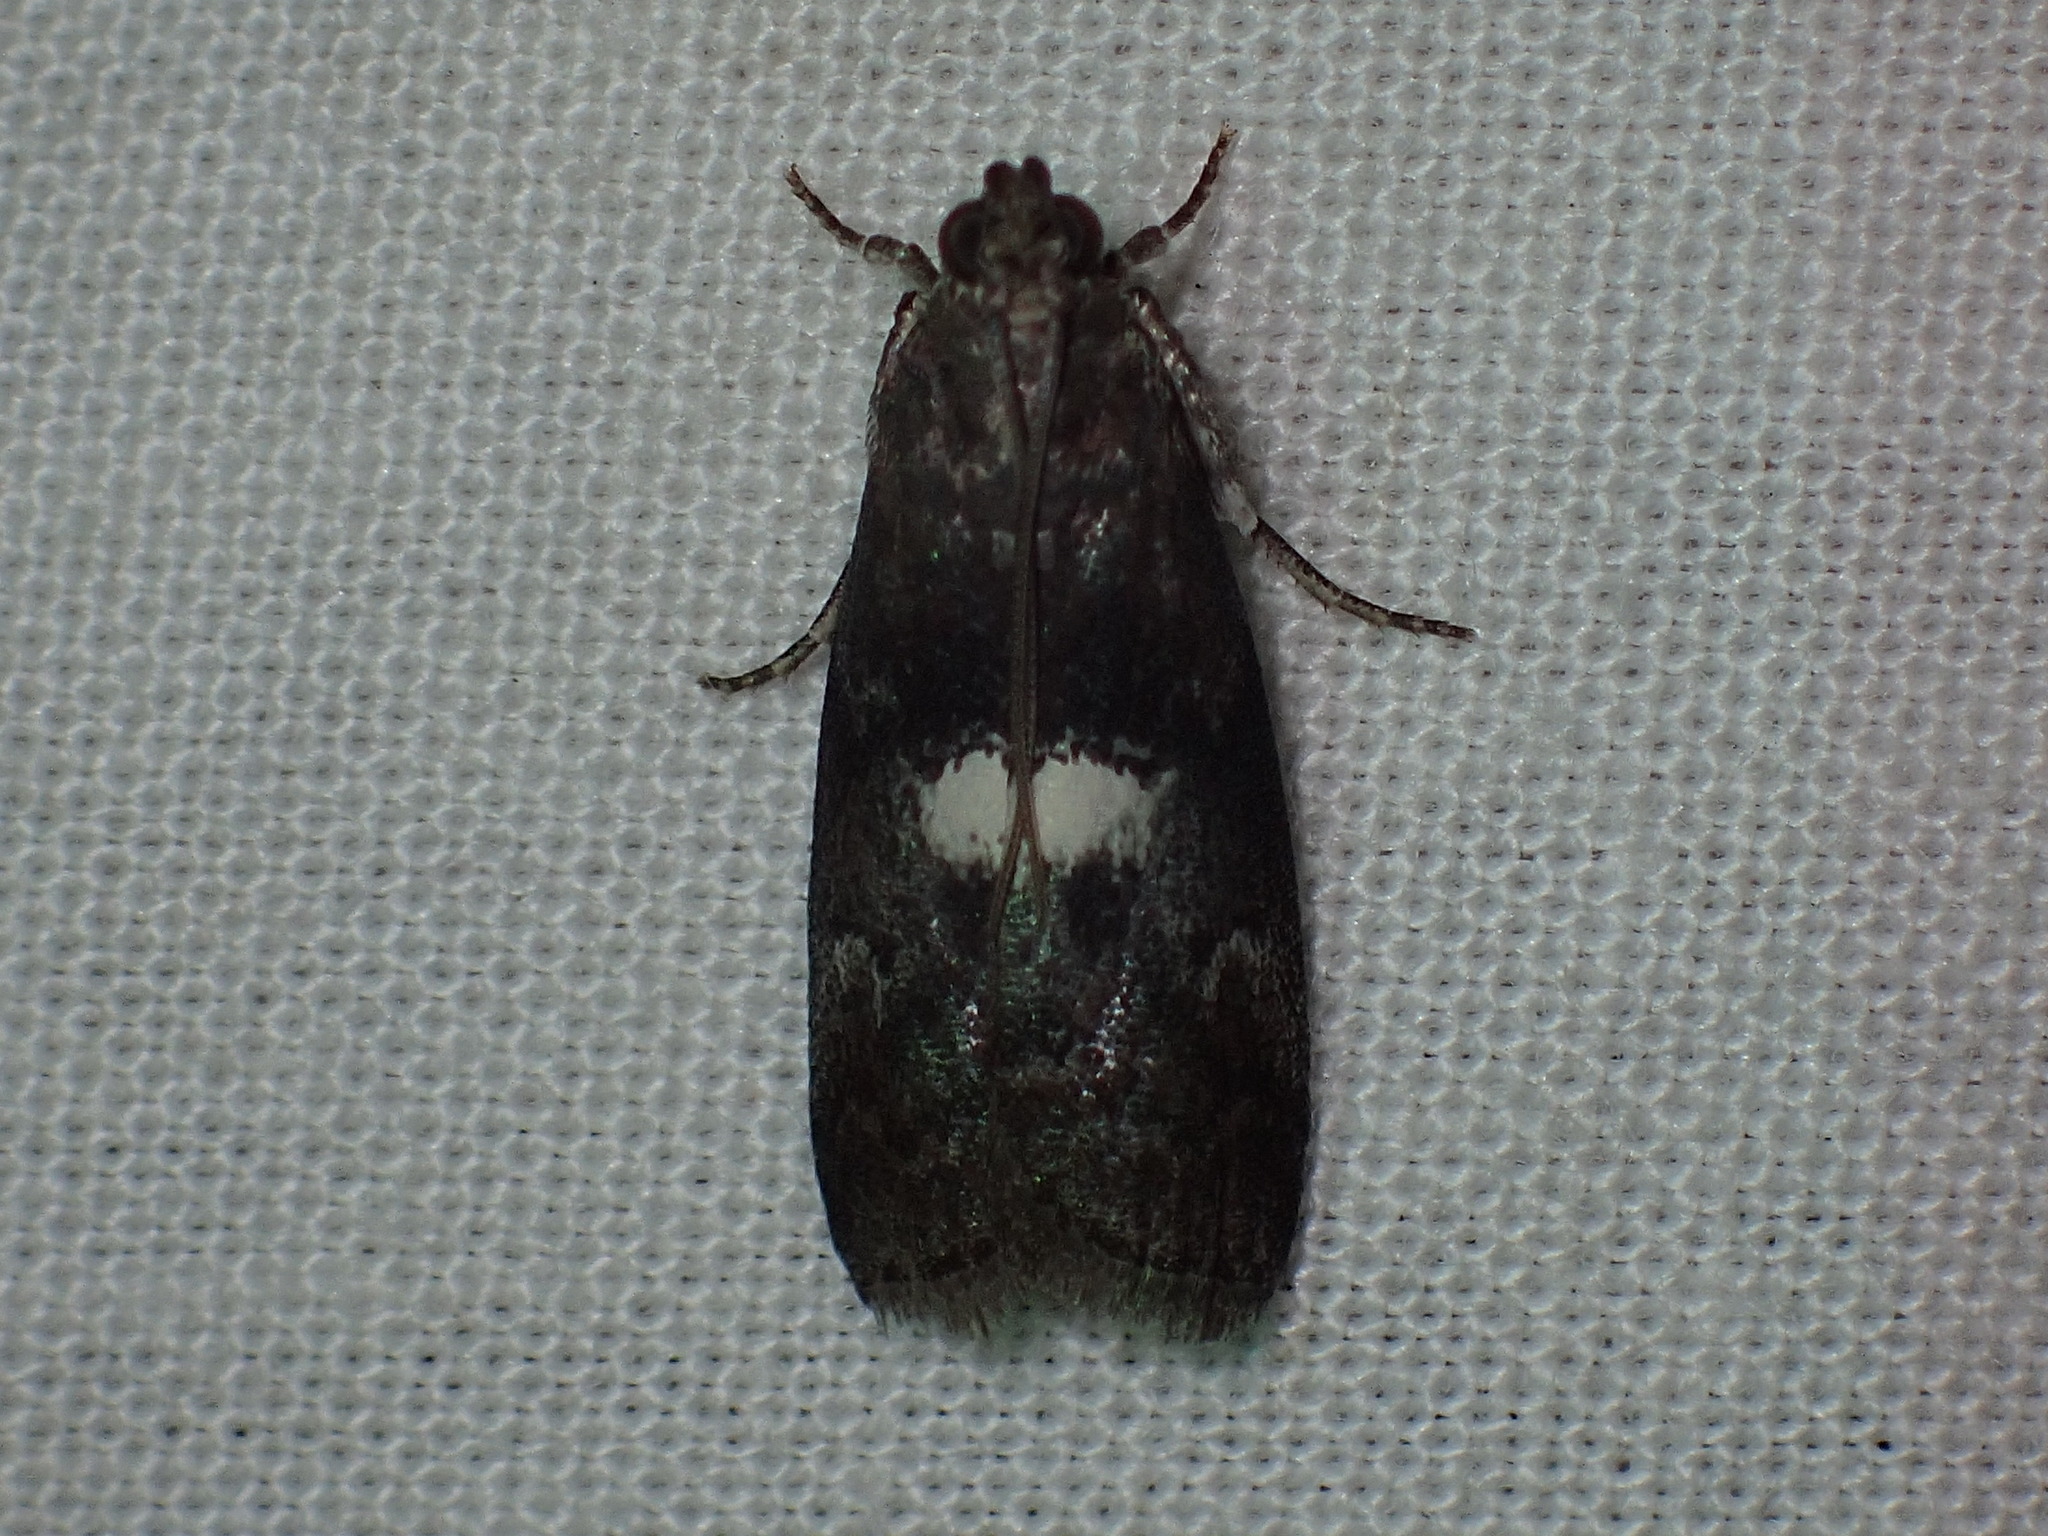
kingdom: Animalia
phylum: Arthropoda
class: Insecta
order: Lepidoptera
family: Pyralidae
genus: Salebriaria
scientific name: Salebriaria engeli
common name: Engel's salebriaria moth
